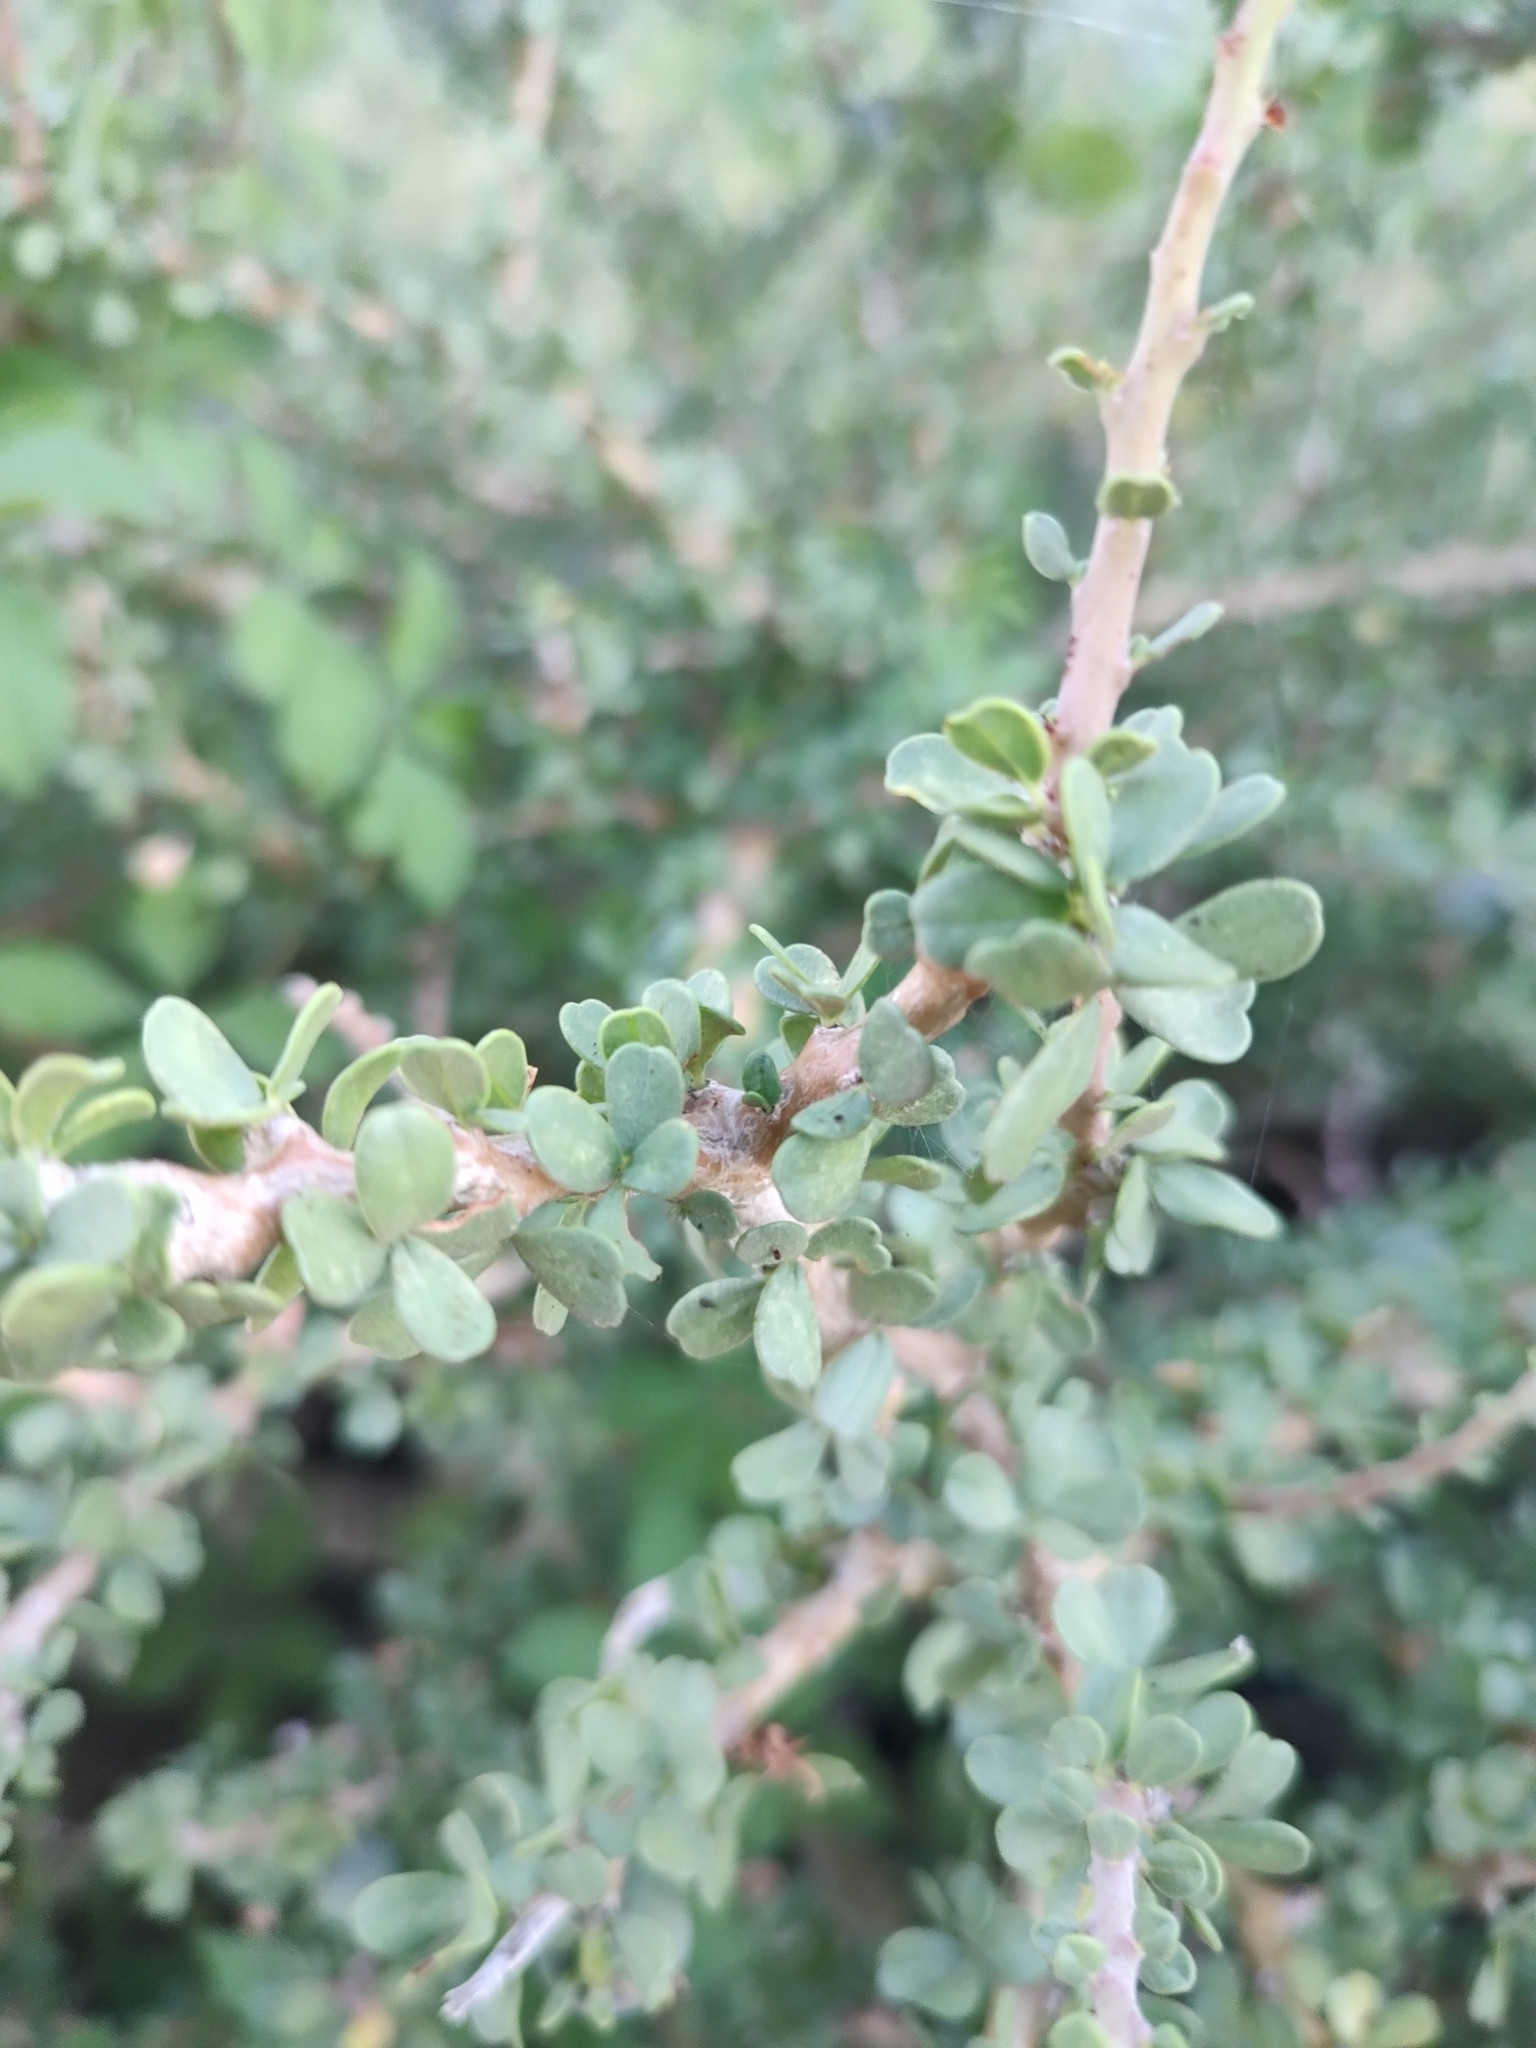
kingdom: Plantae
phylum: Tracheophyta
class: Magnoliopsida
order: Malpighiales
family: Euphorbiaceae
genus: Jatropha
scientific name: Jatropha cuneata
